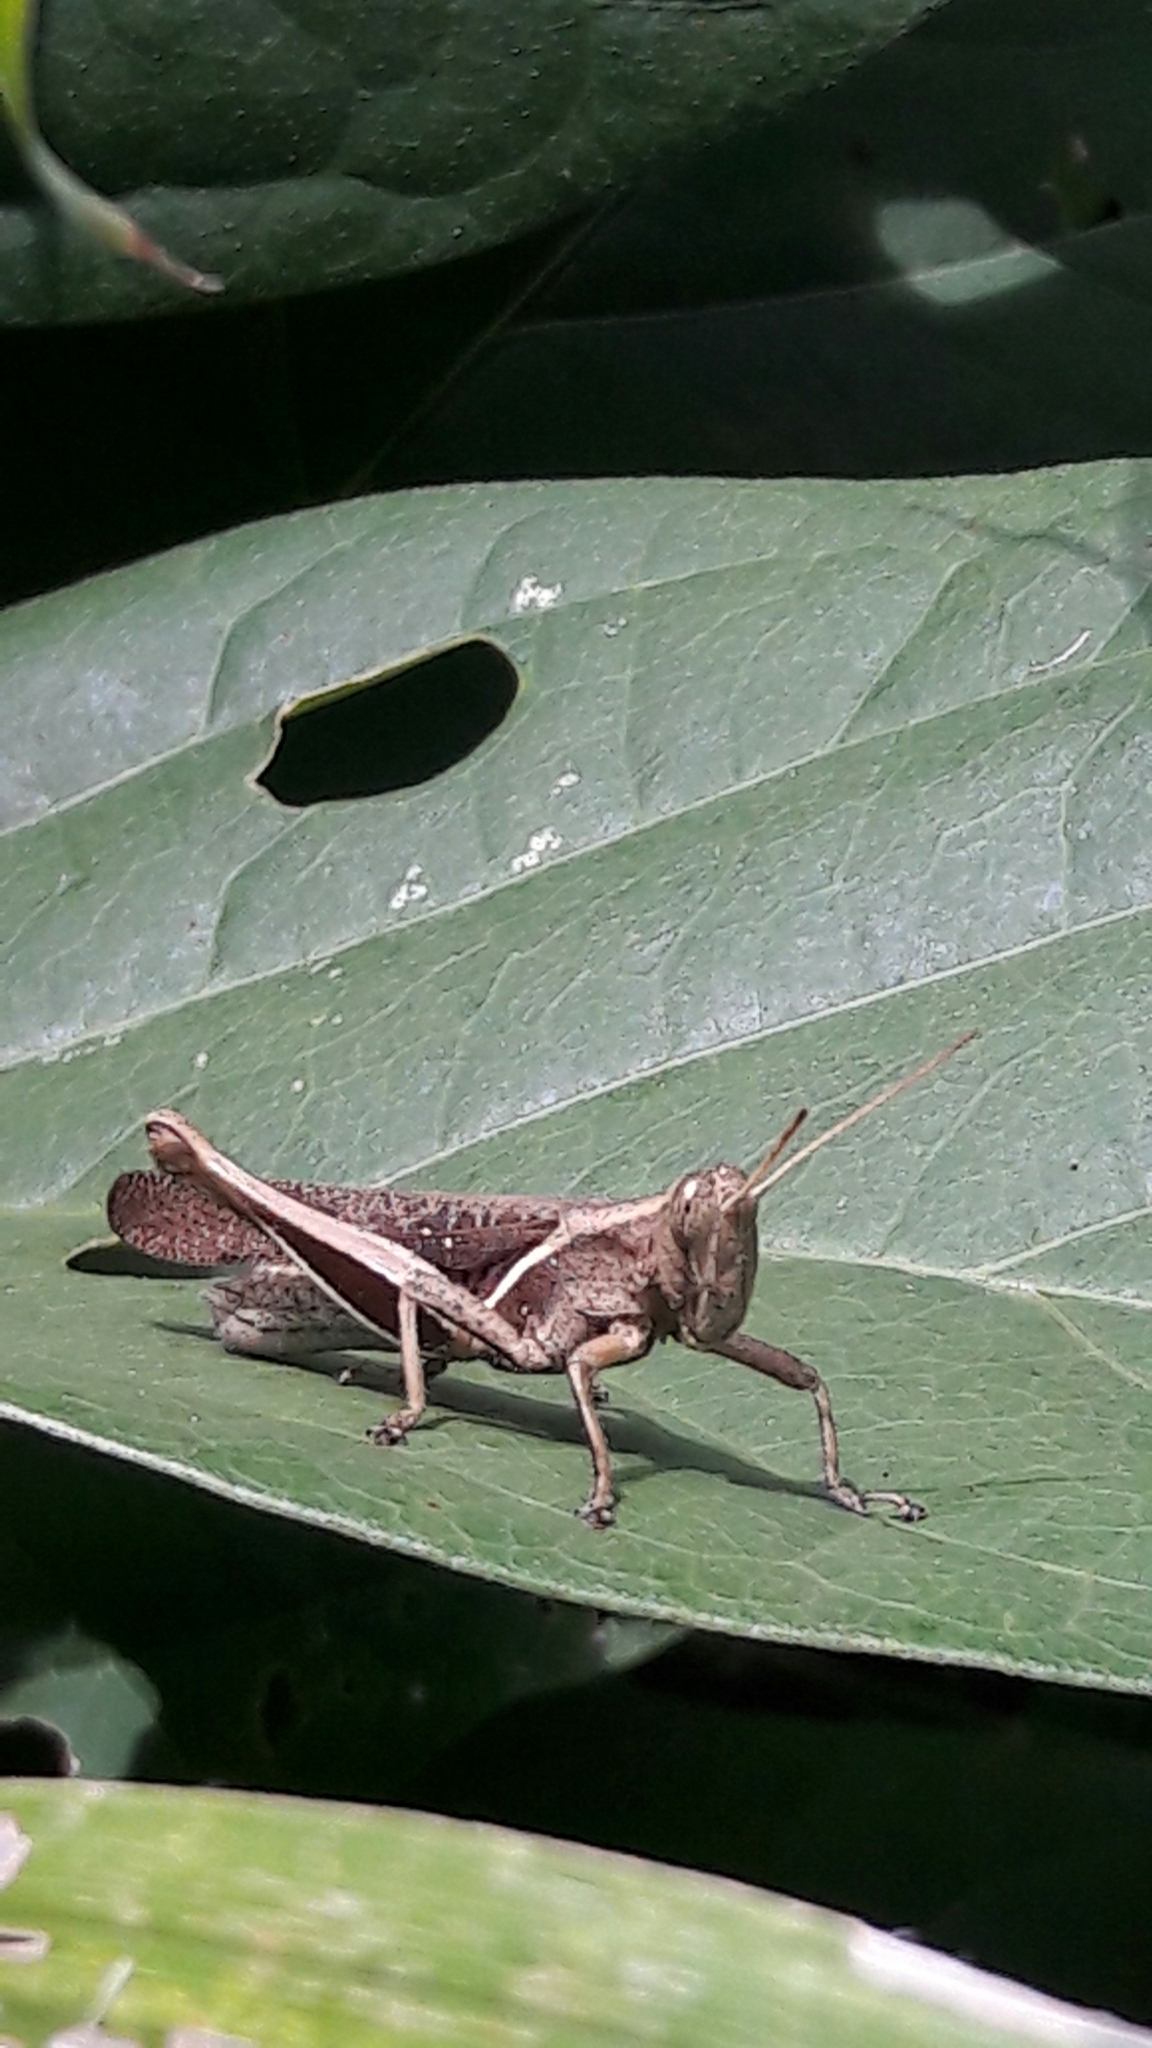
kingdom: Animalia
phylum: Arthropoda
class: Insecta
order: Orthoptera
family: Acrididae
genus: Abracris
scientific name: Abracris flavolineata
